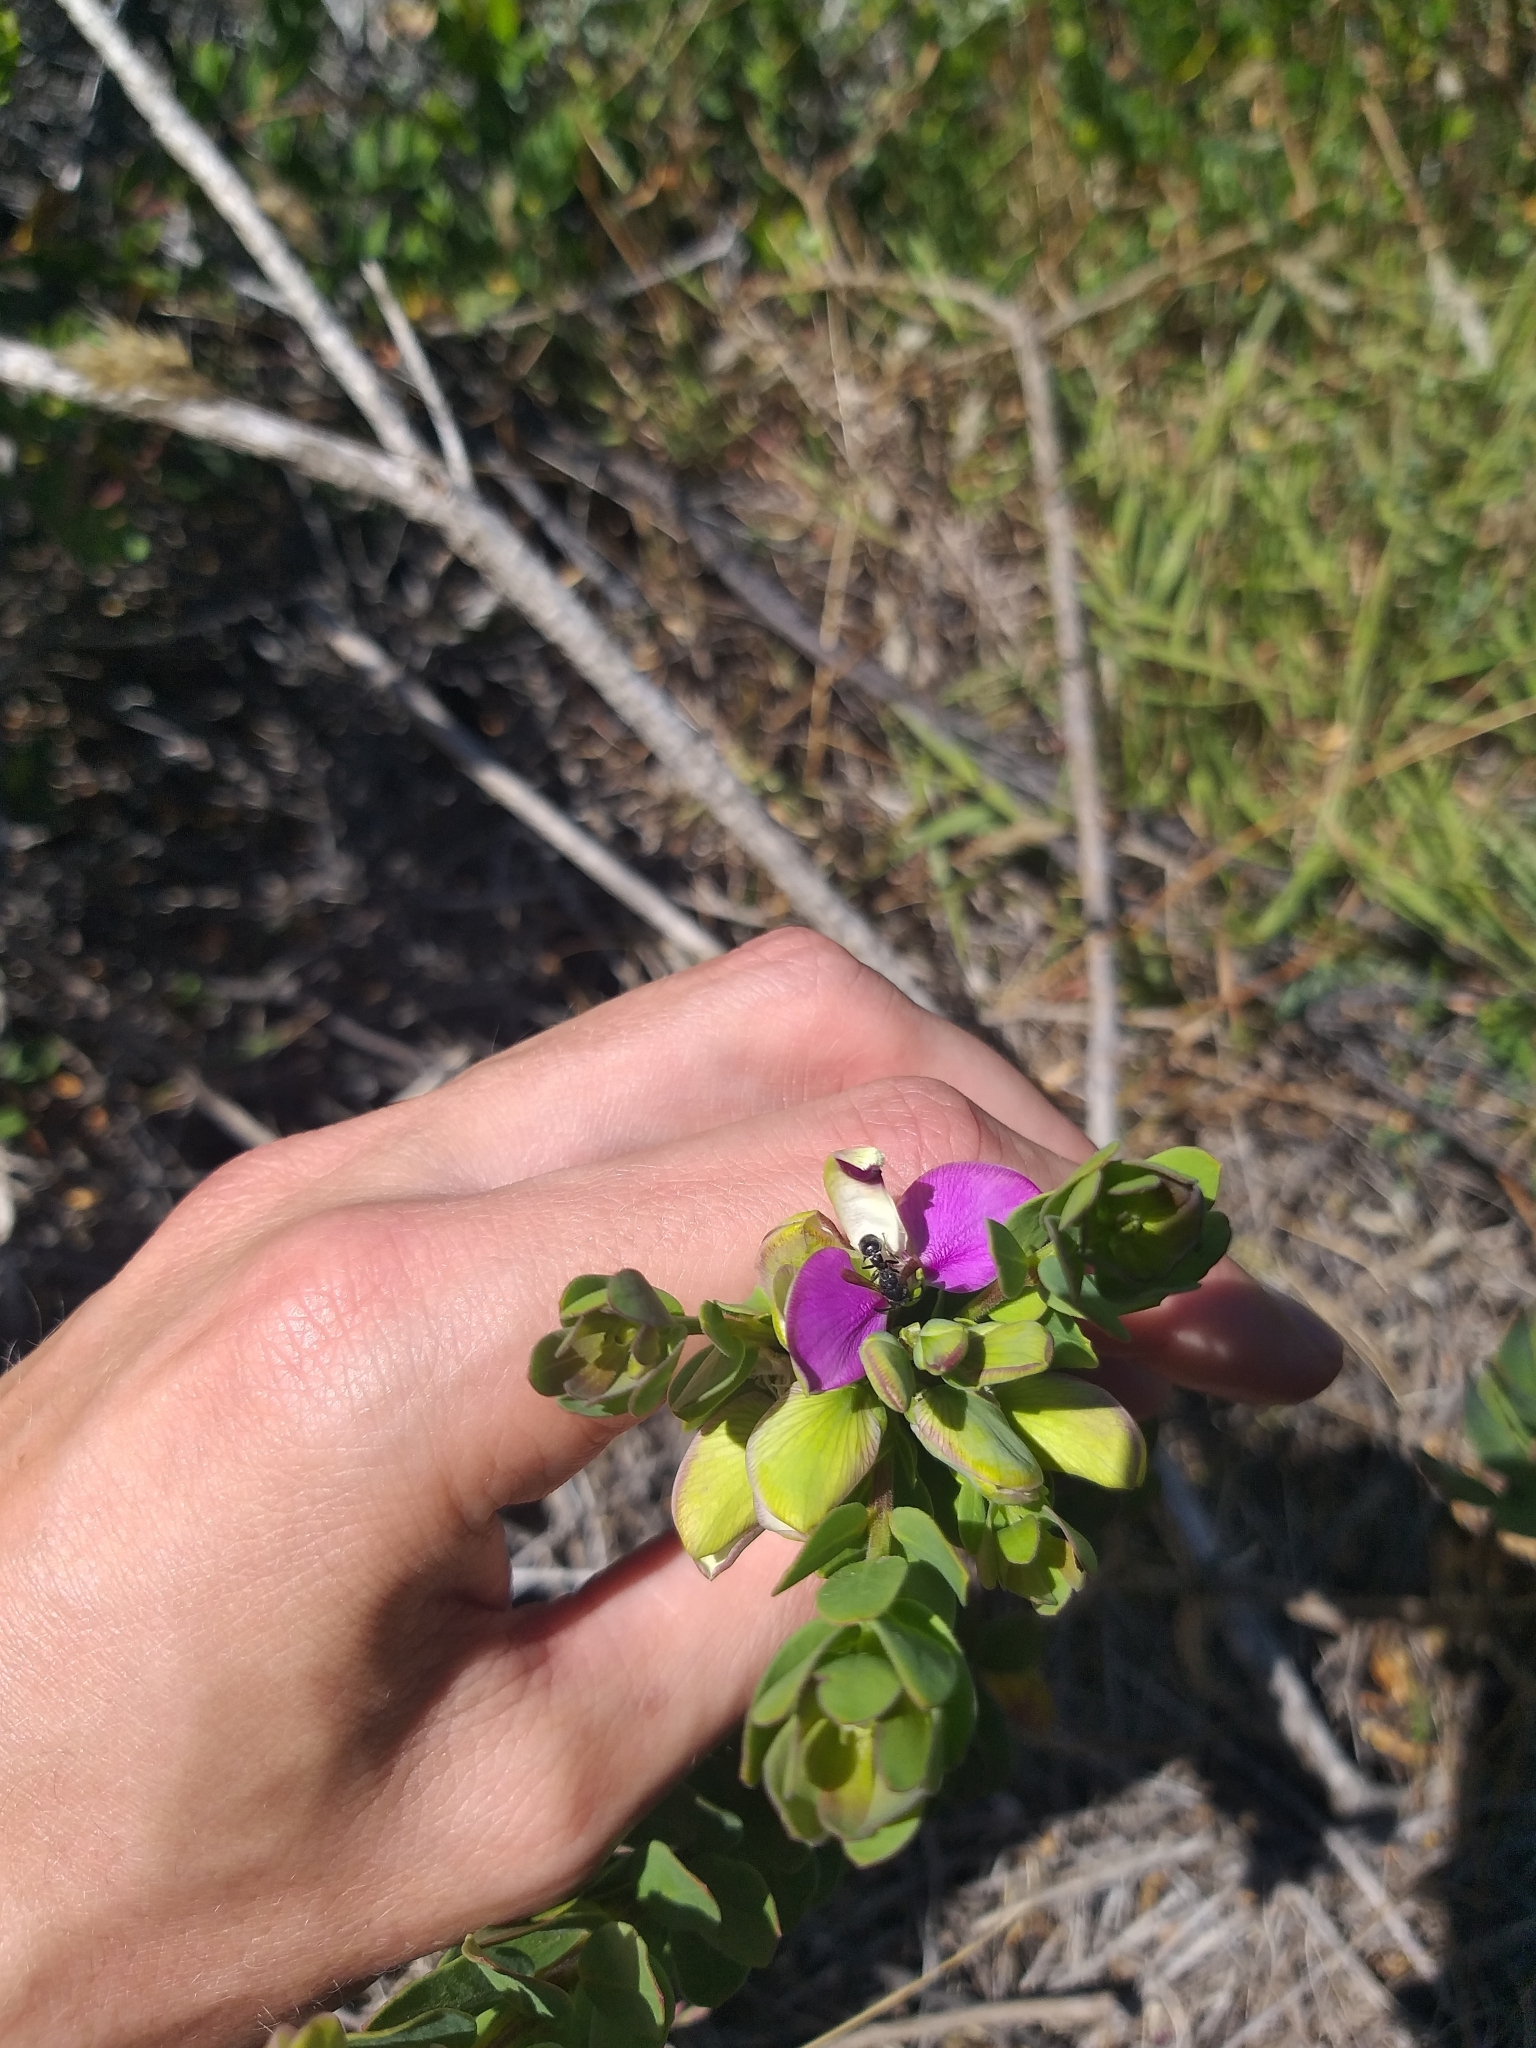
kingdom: Plantae
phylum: Tracheophyta
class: Magnoliopsida
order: Fabales
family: Polygalaceae
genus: Polygala
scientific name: Polygala myrtifolia
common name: Myrtle-leaf milkwort
